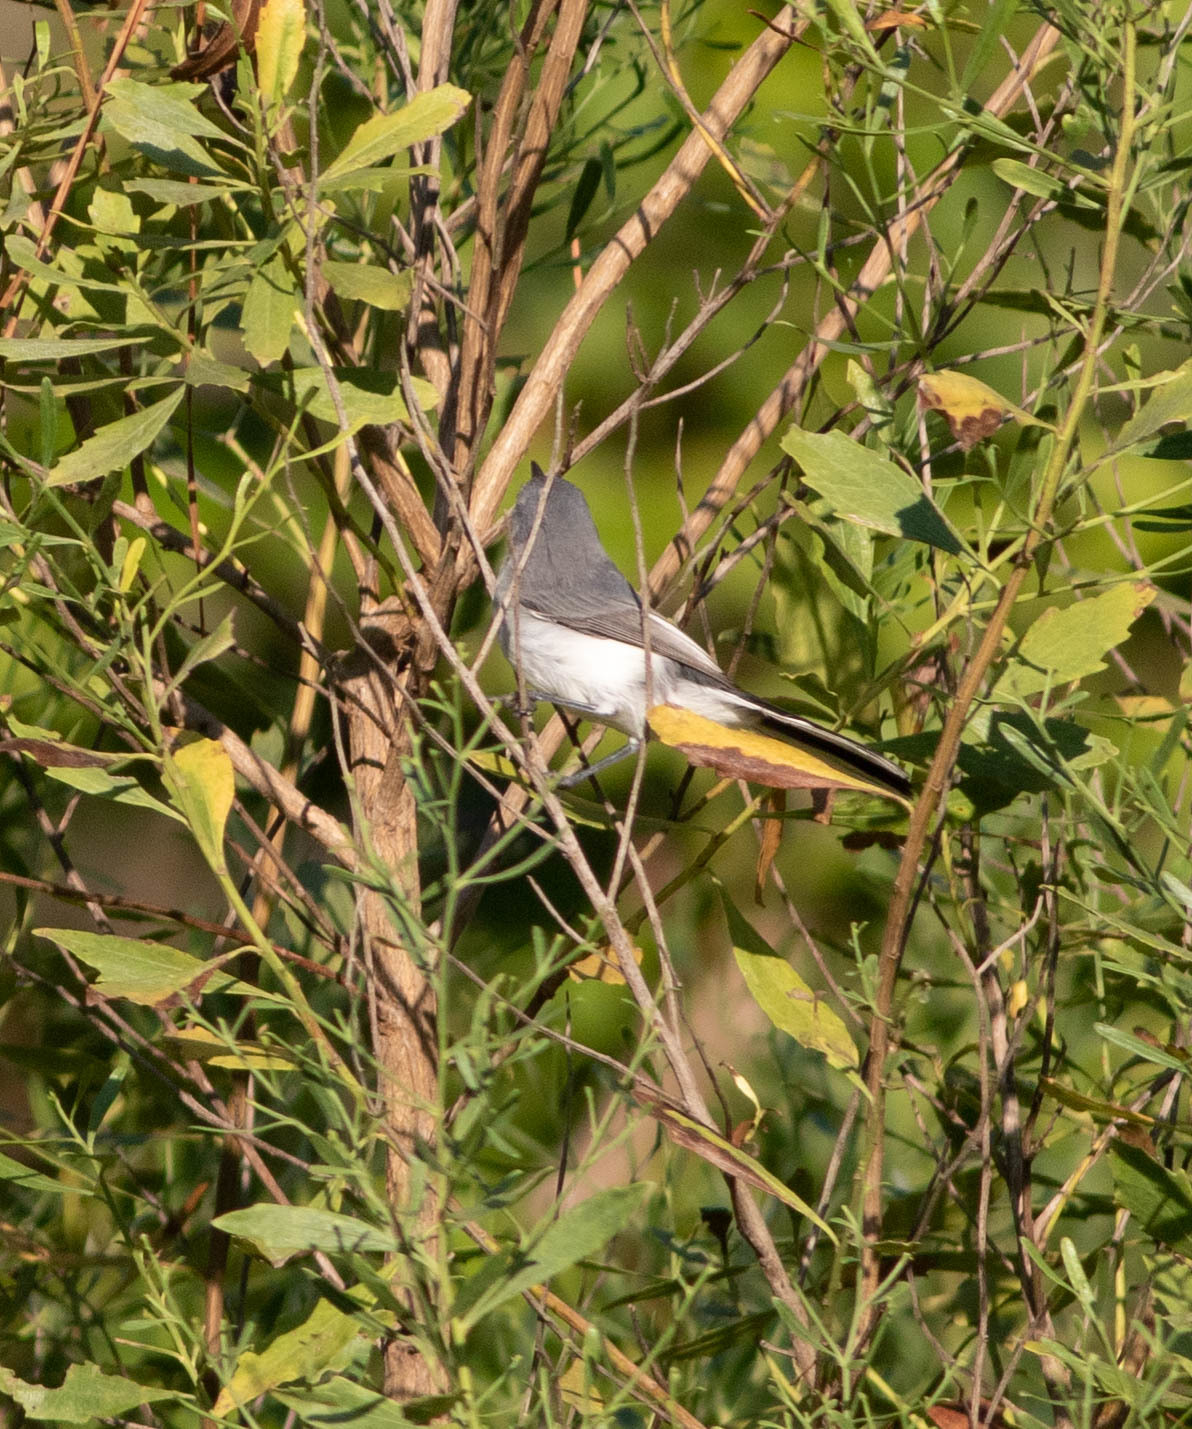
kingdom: Animalia
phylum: Chordata
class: Aves
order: Passeriformes
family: Polioptilidae
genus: Polioptila
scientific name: Polioptila caerulea
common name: Blue-gray gnatcatcher
